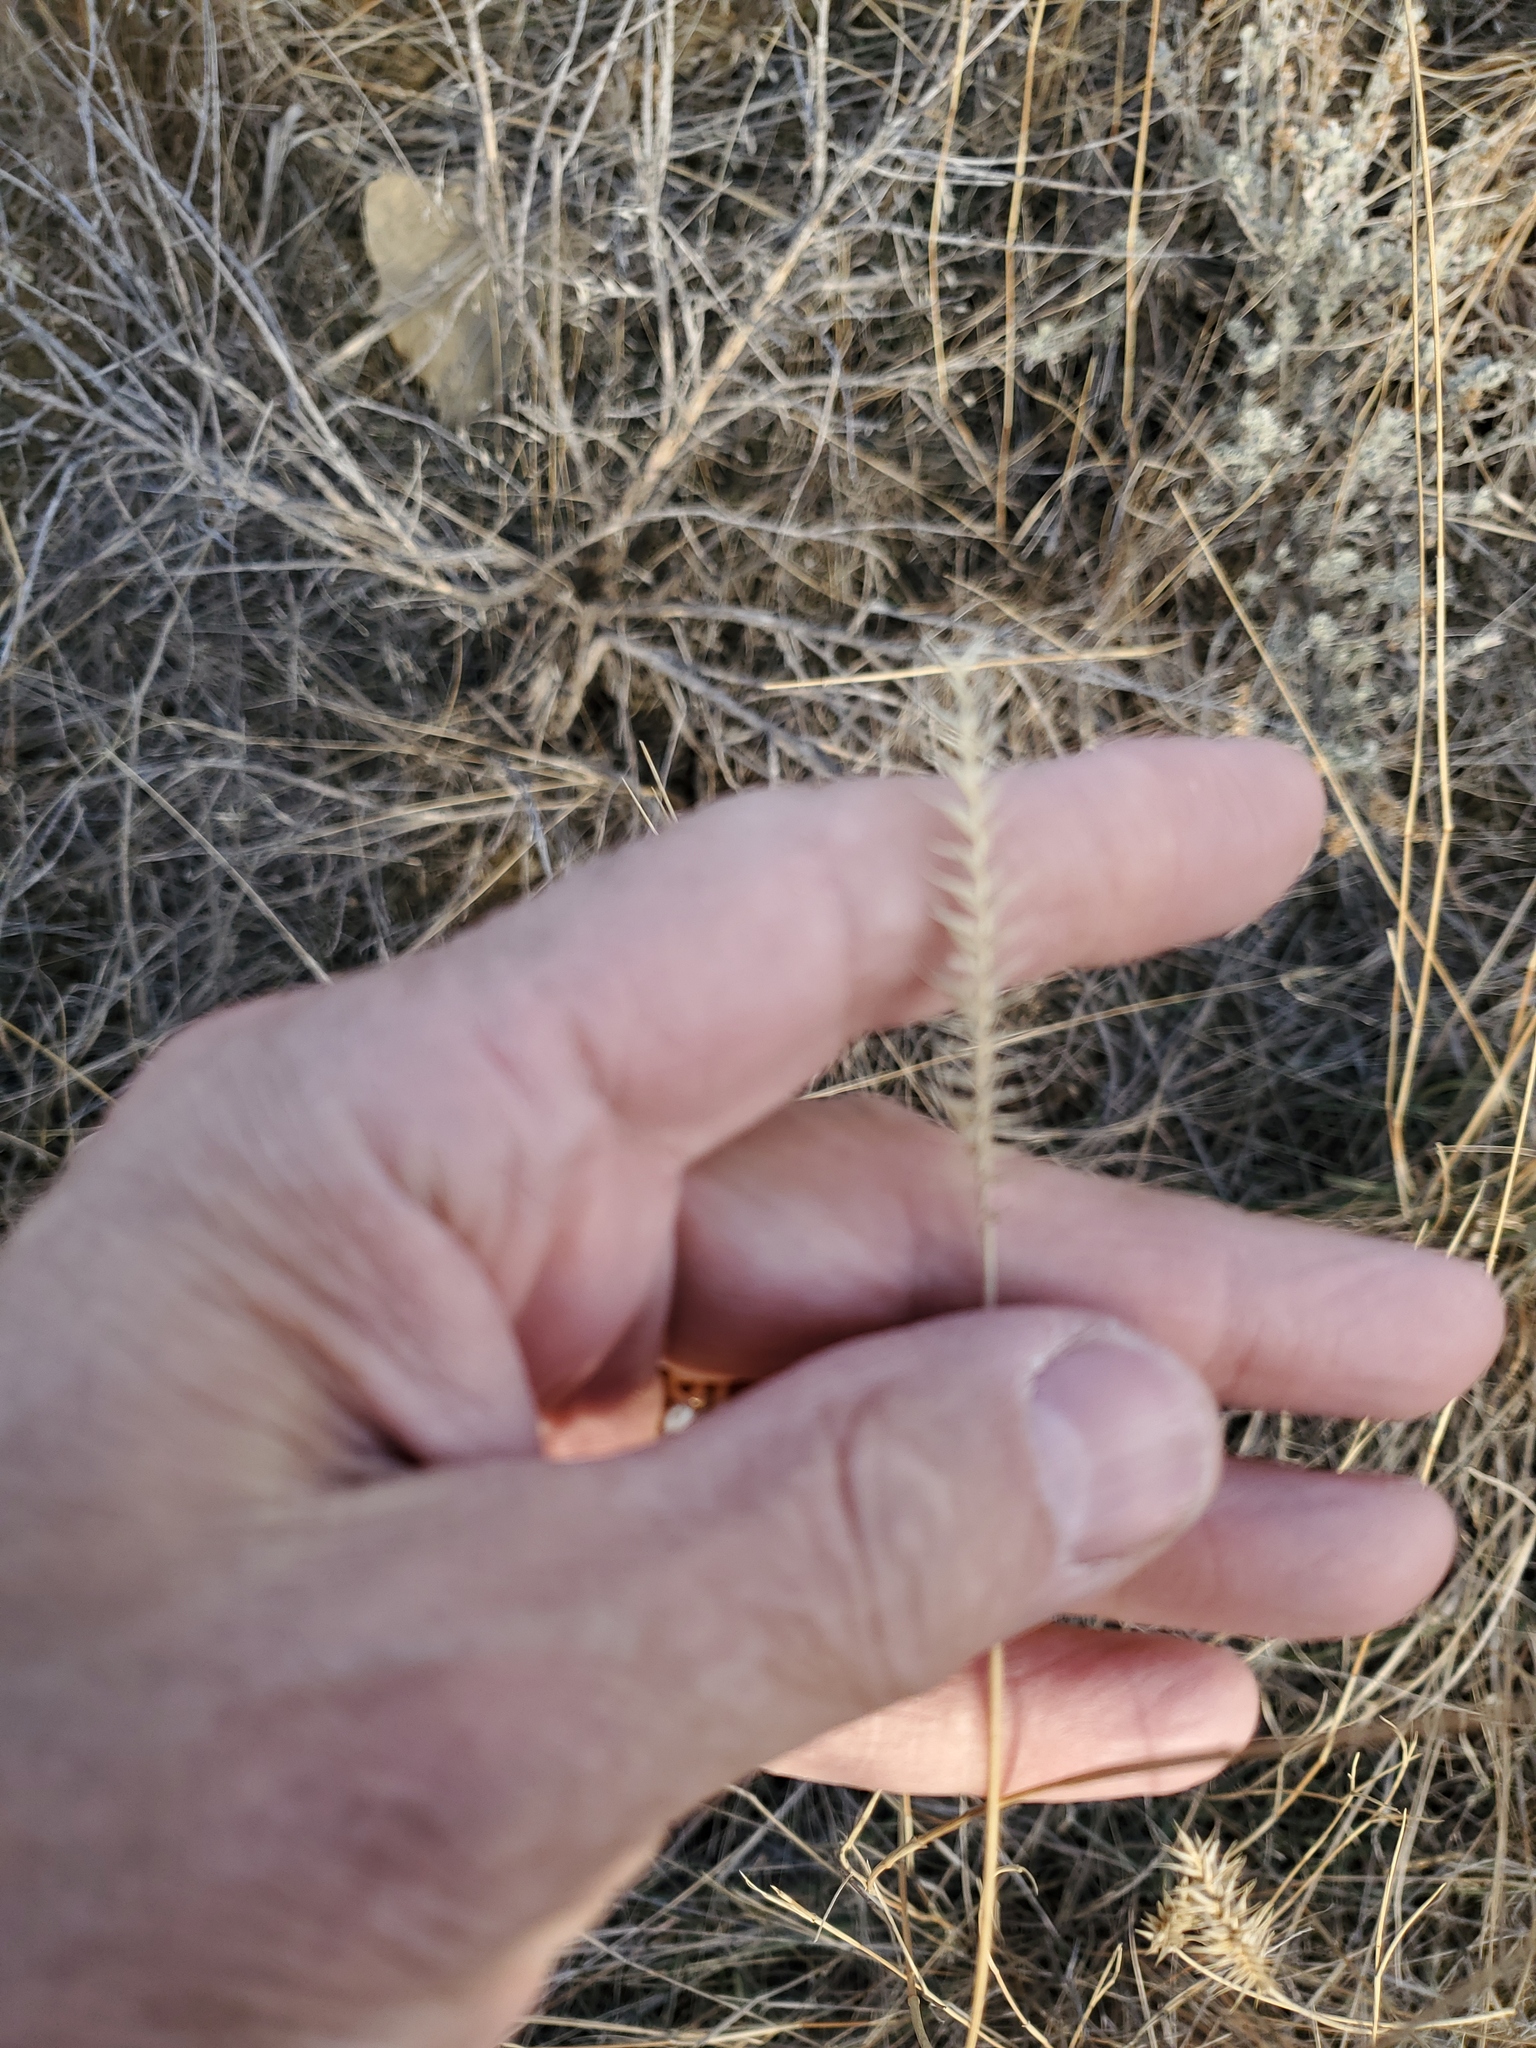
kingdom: Plantae
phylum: Tracheophyta
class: Liliopsida
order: Poales
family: Poaceae
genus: Agropyron
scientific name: Agropyron cristatum
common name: Crested wheatgrass
